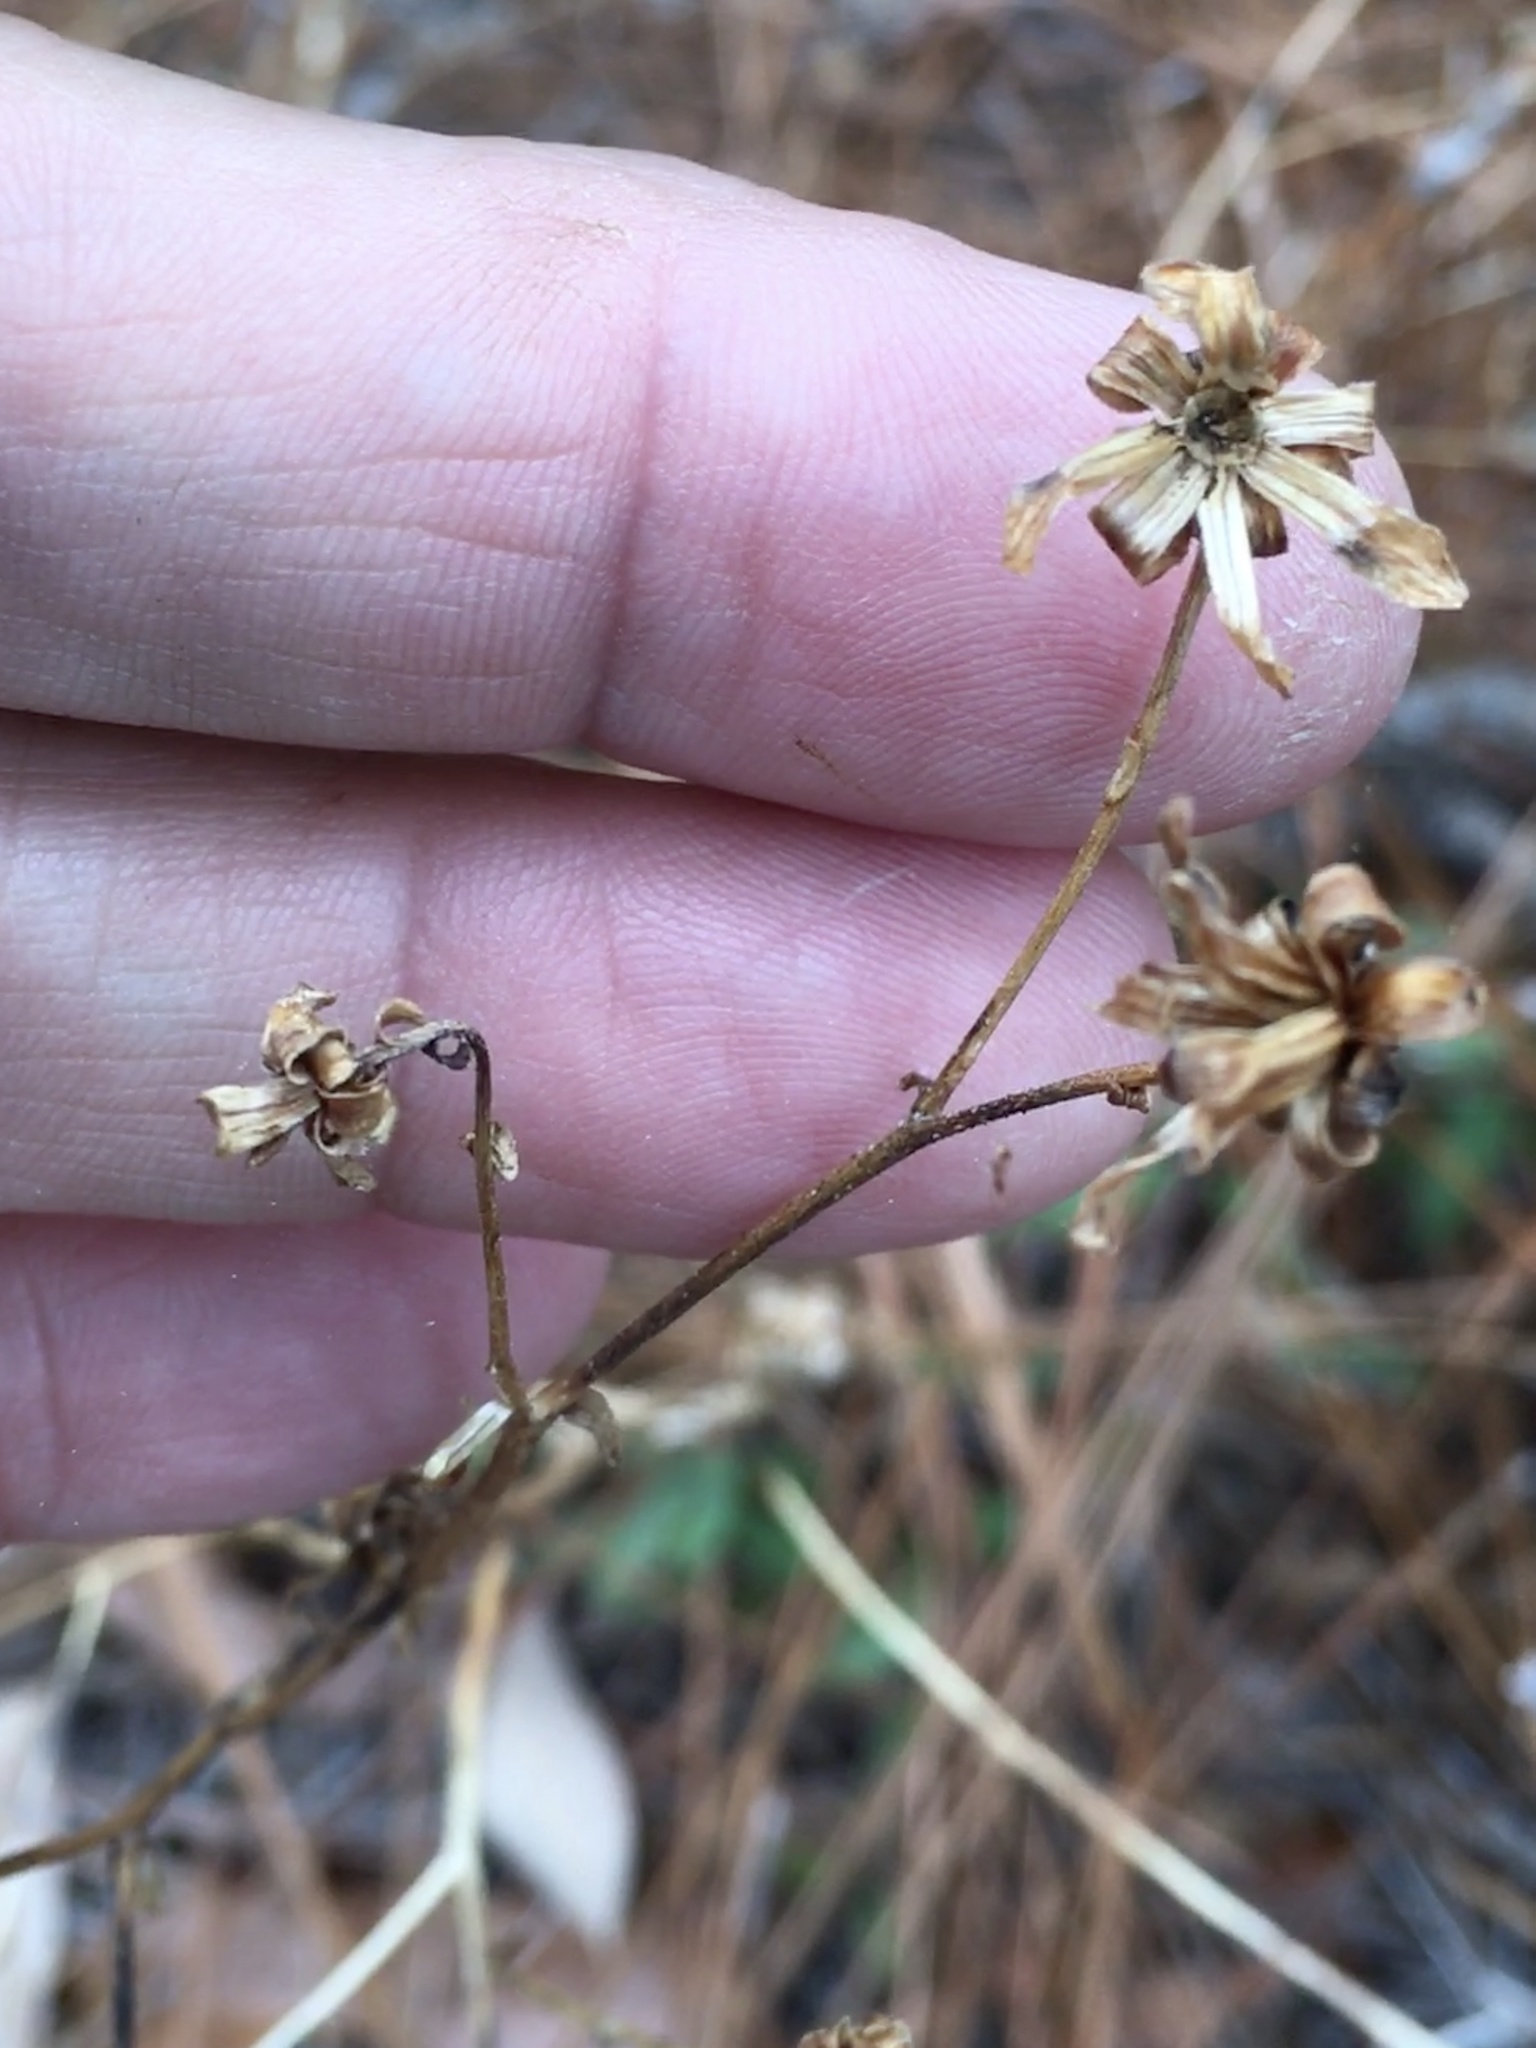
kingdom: Plantae
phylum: Tracheophyta
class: Magnoliopsida
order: Asterales
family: Asteraceae
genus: Carphephorus
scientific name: Carphephorus bellidifolius
